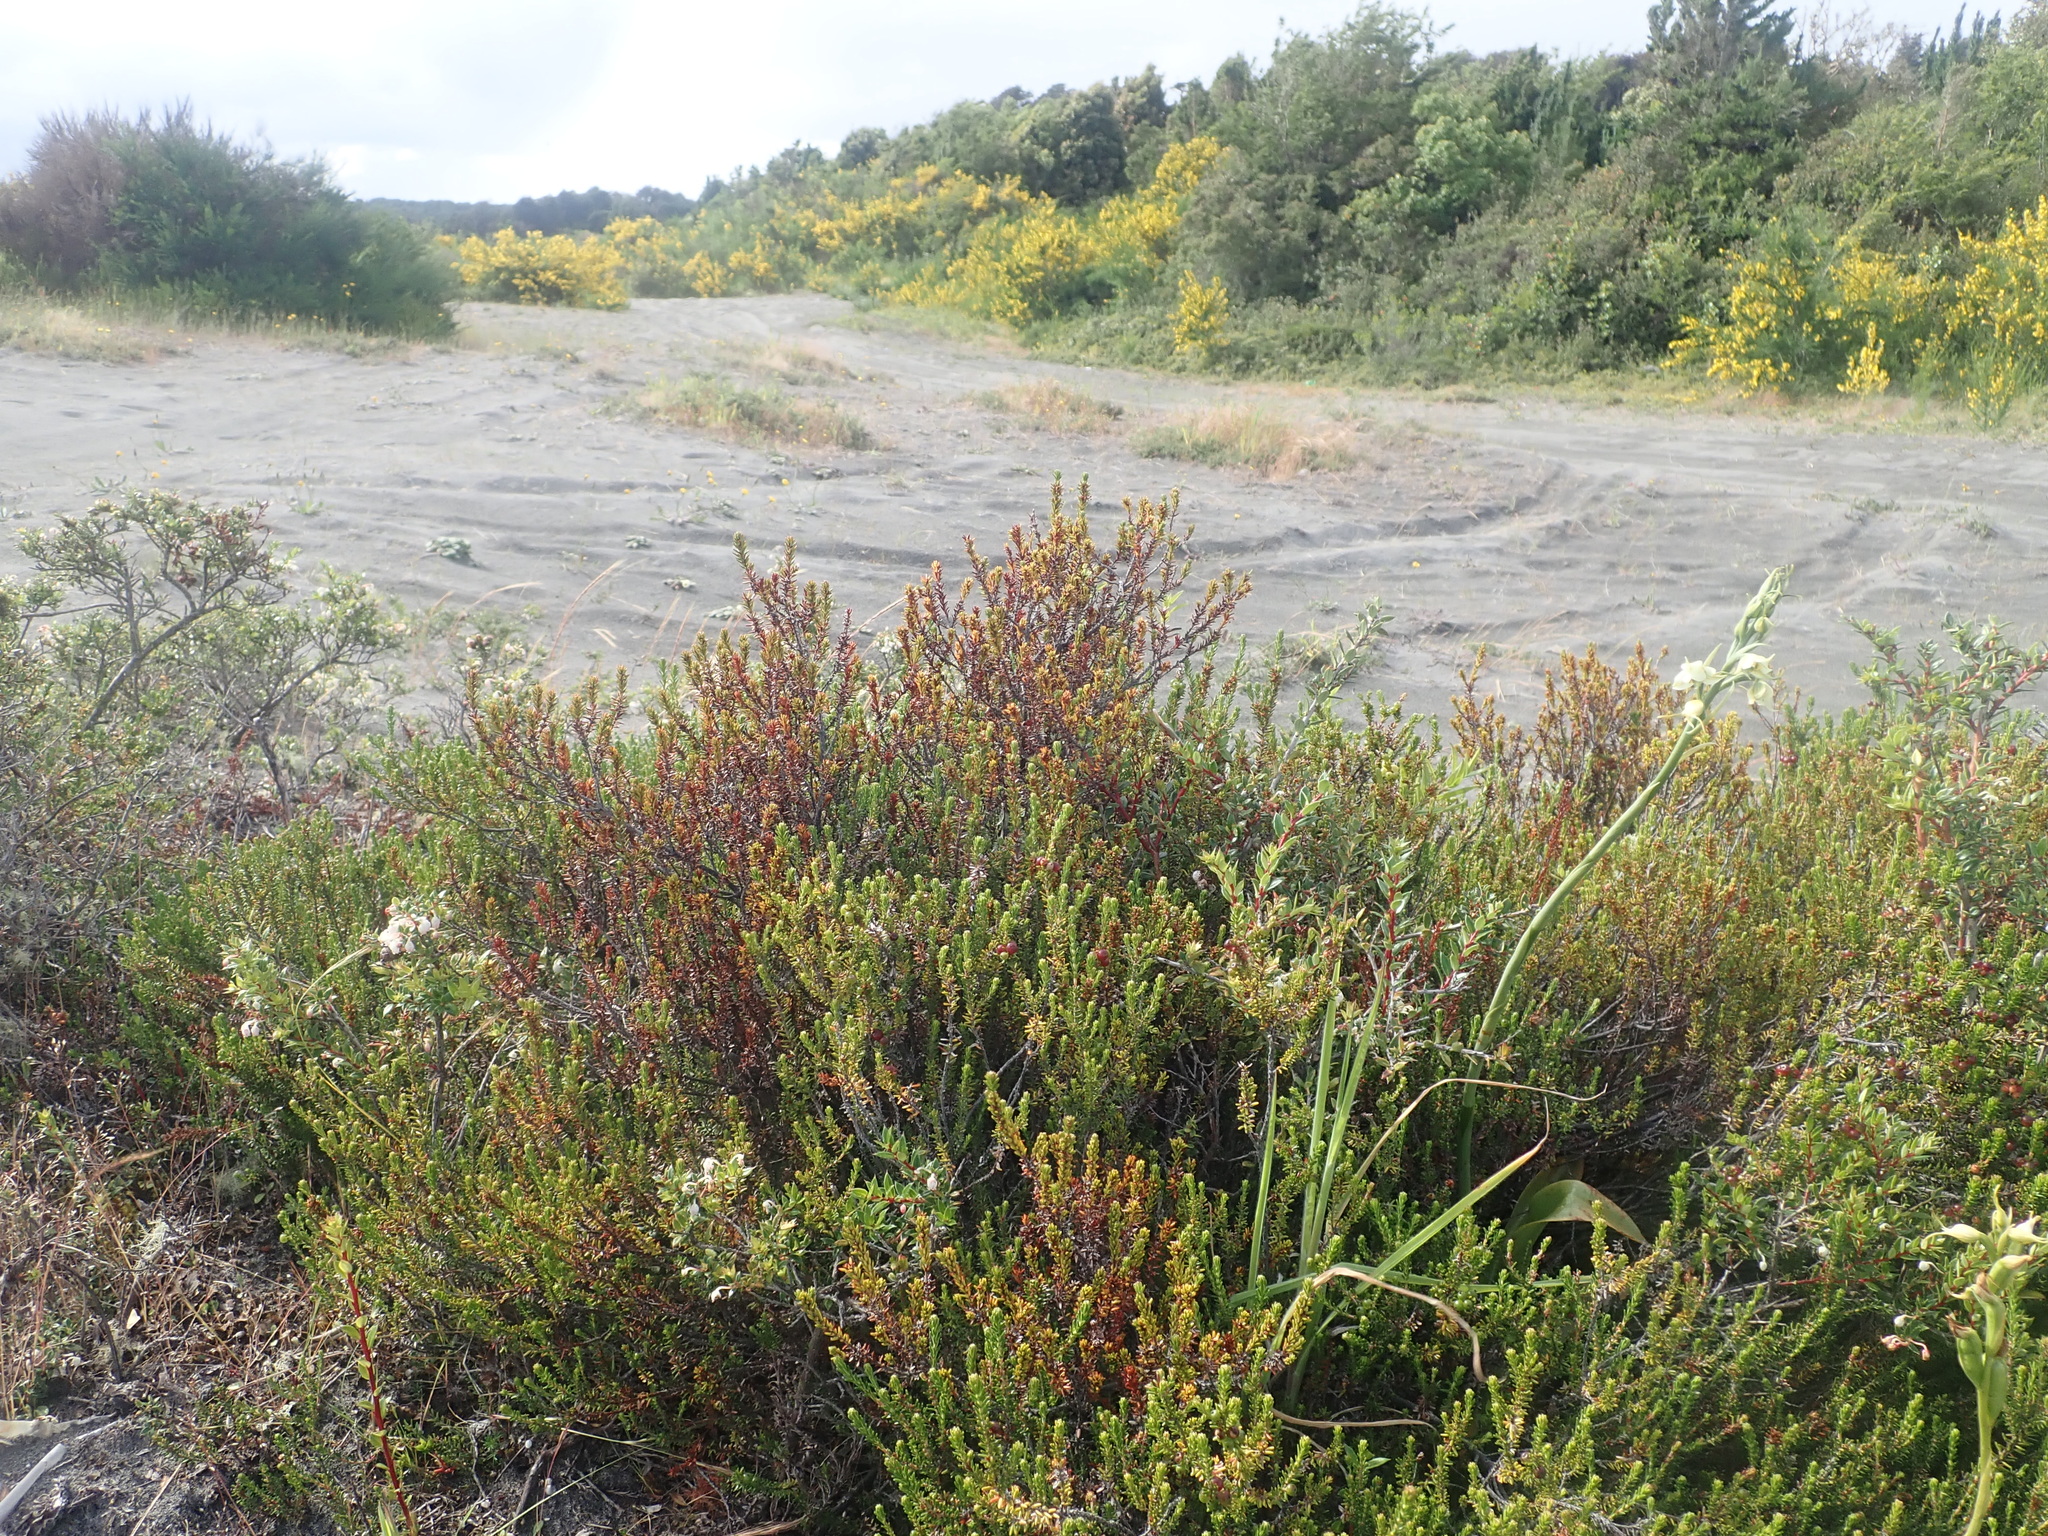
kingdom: Plantae
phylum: Tracheophyta
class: Magnoliopsida
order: Ericales
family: Ericaceae
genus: Empetrum
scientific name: Empetrum rubrum
